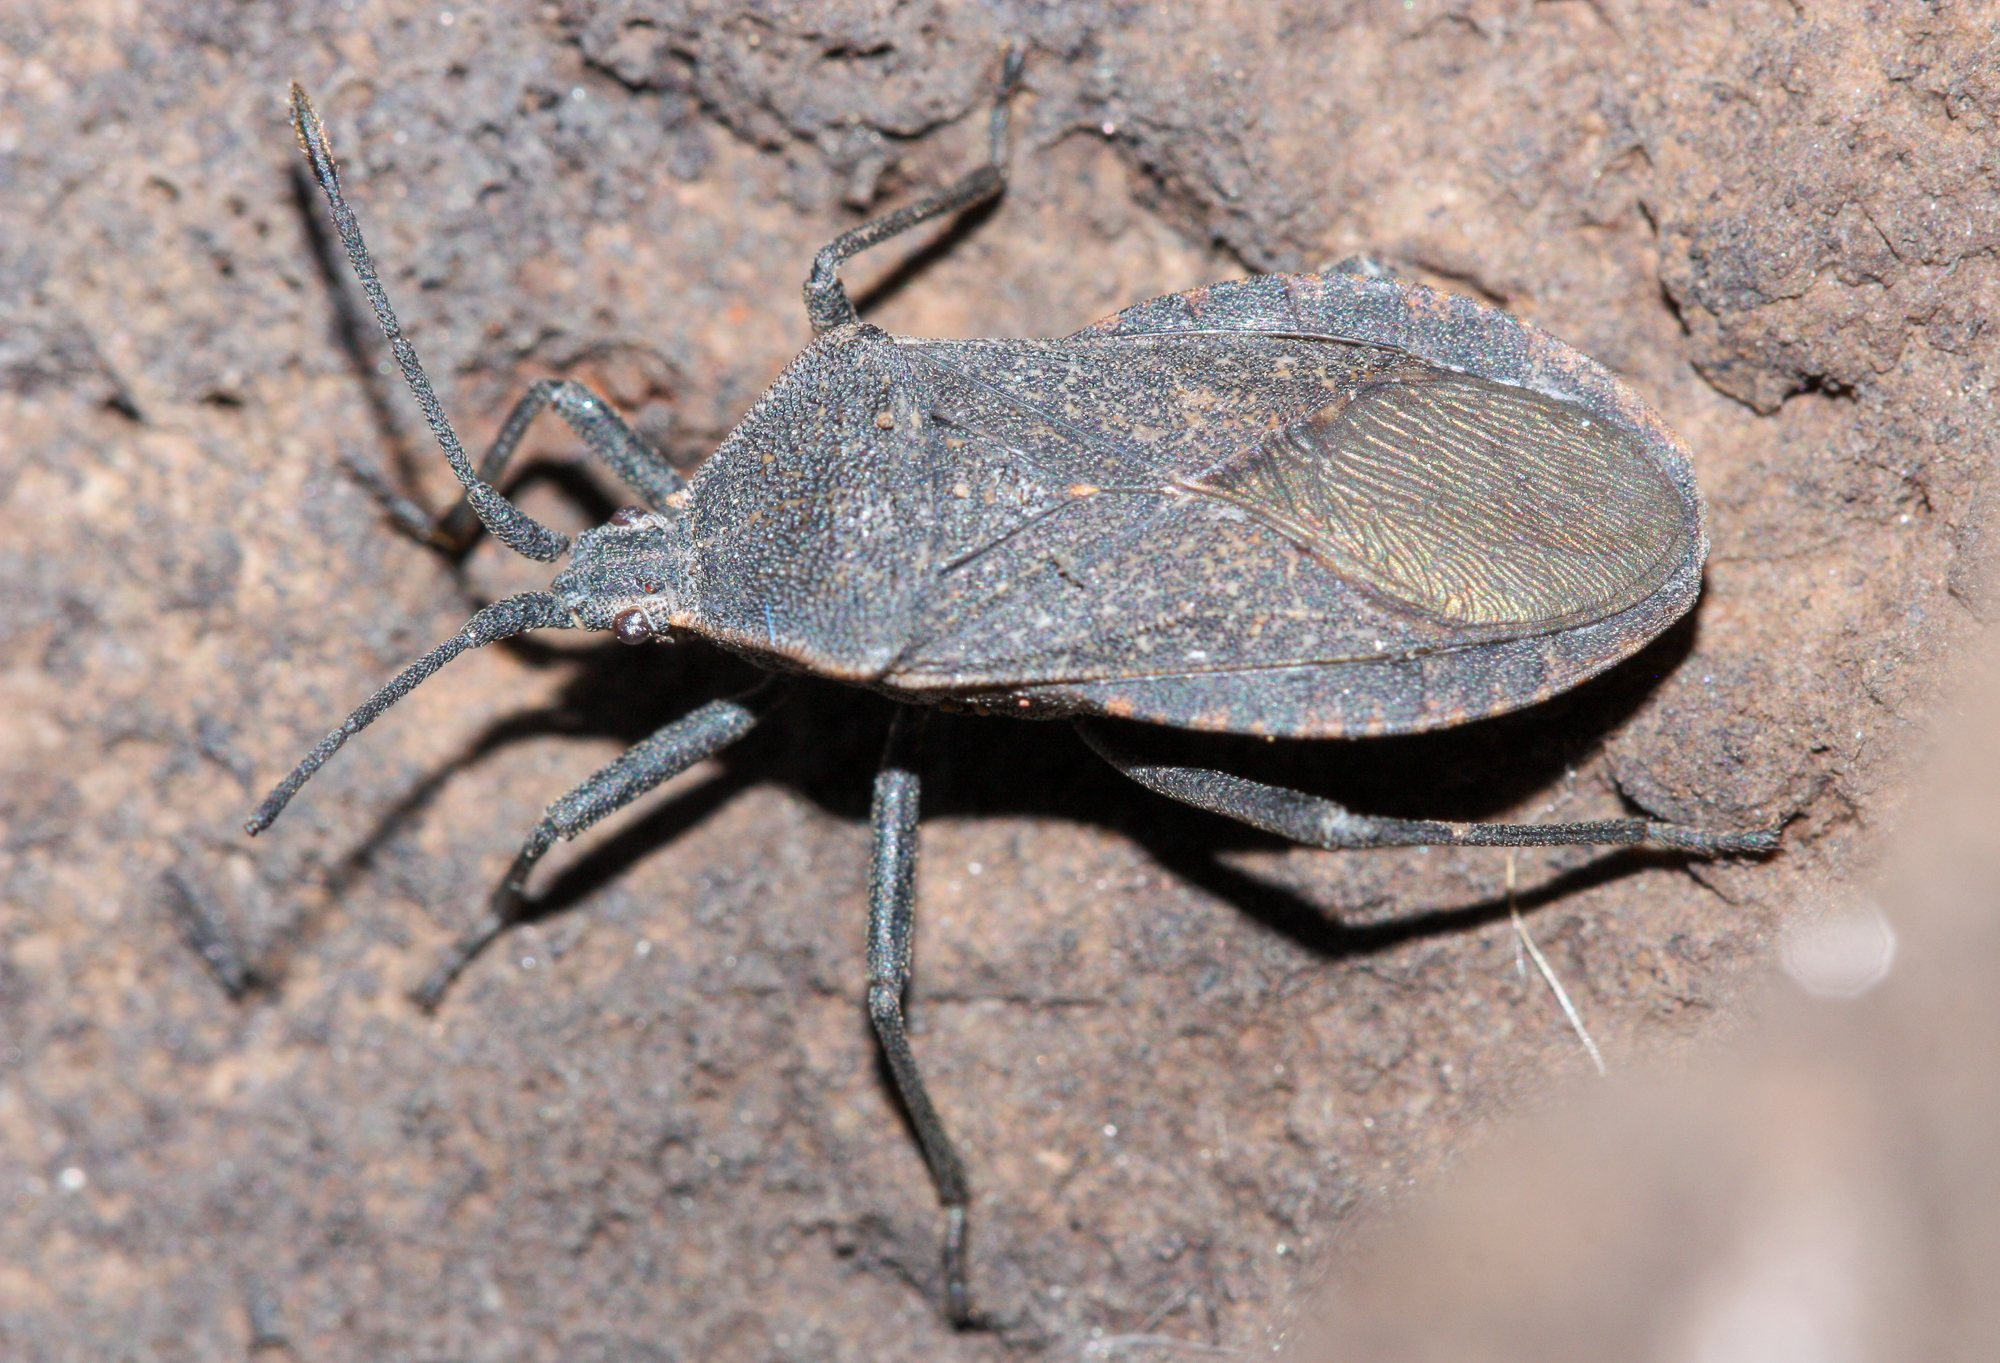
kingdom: Animalia
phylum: Arthropoda
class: Insecta
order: Hemiptera
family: Coreidae
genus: Anasa
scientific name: Anasa tristis
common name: Squash bug
